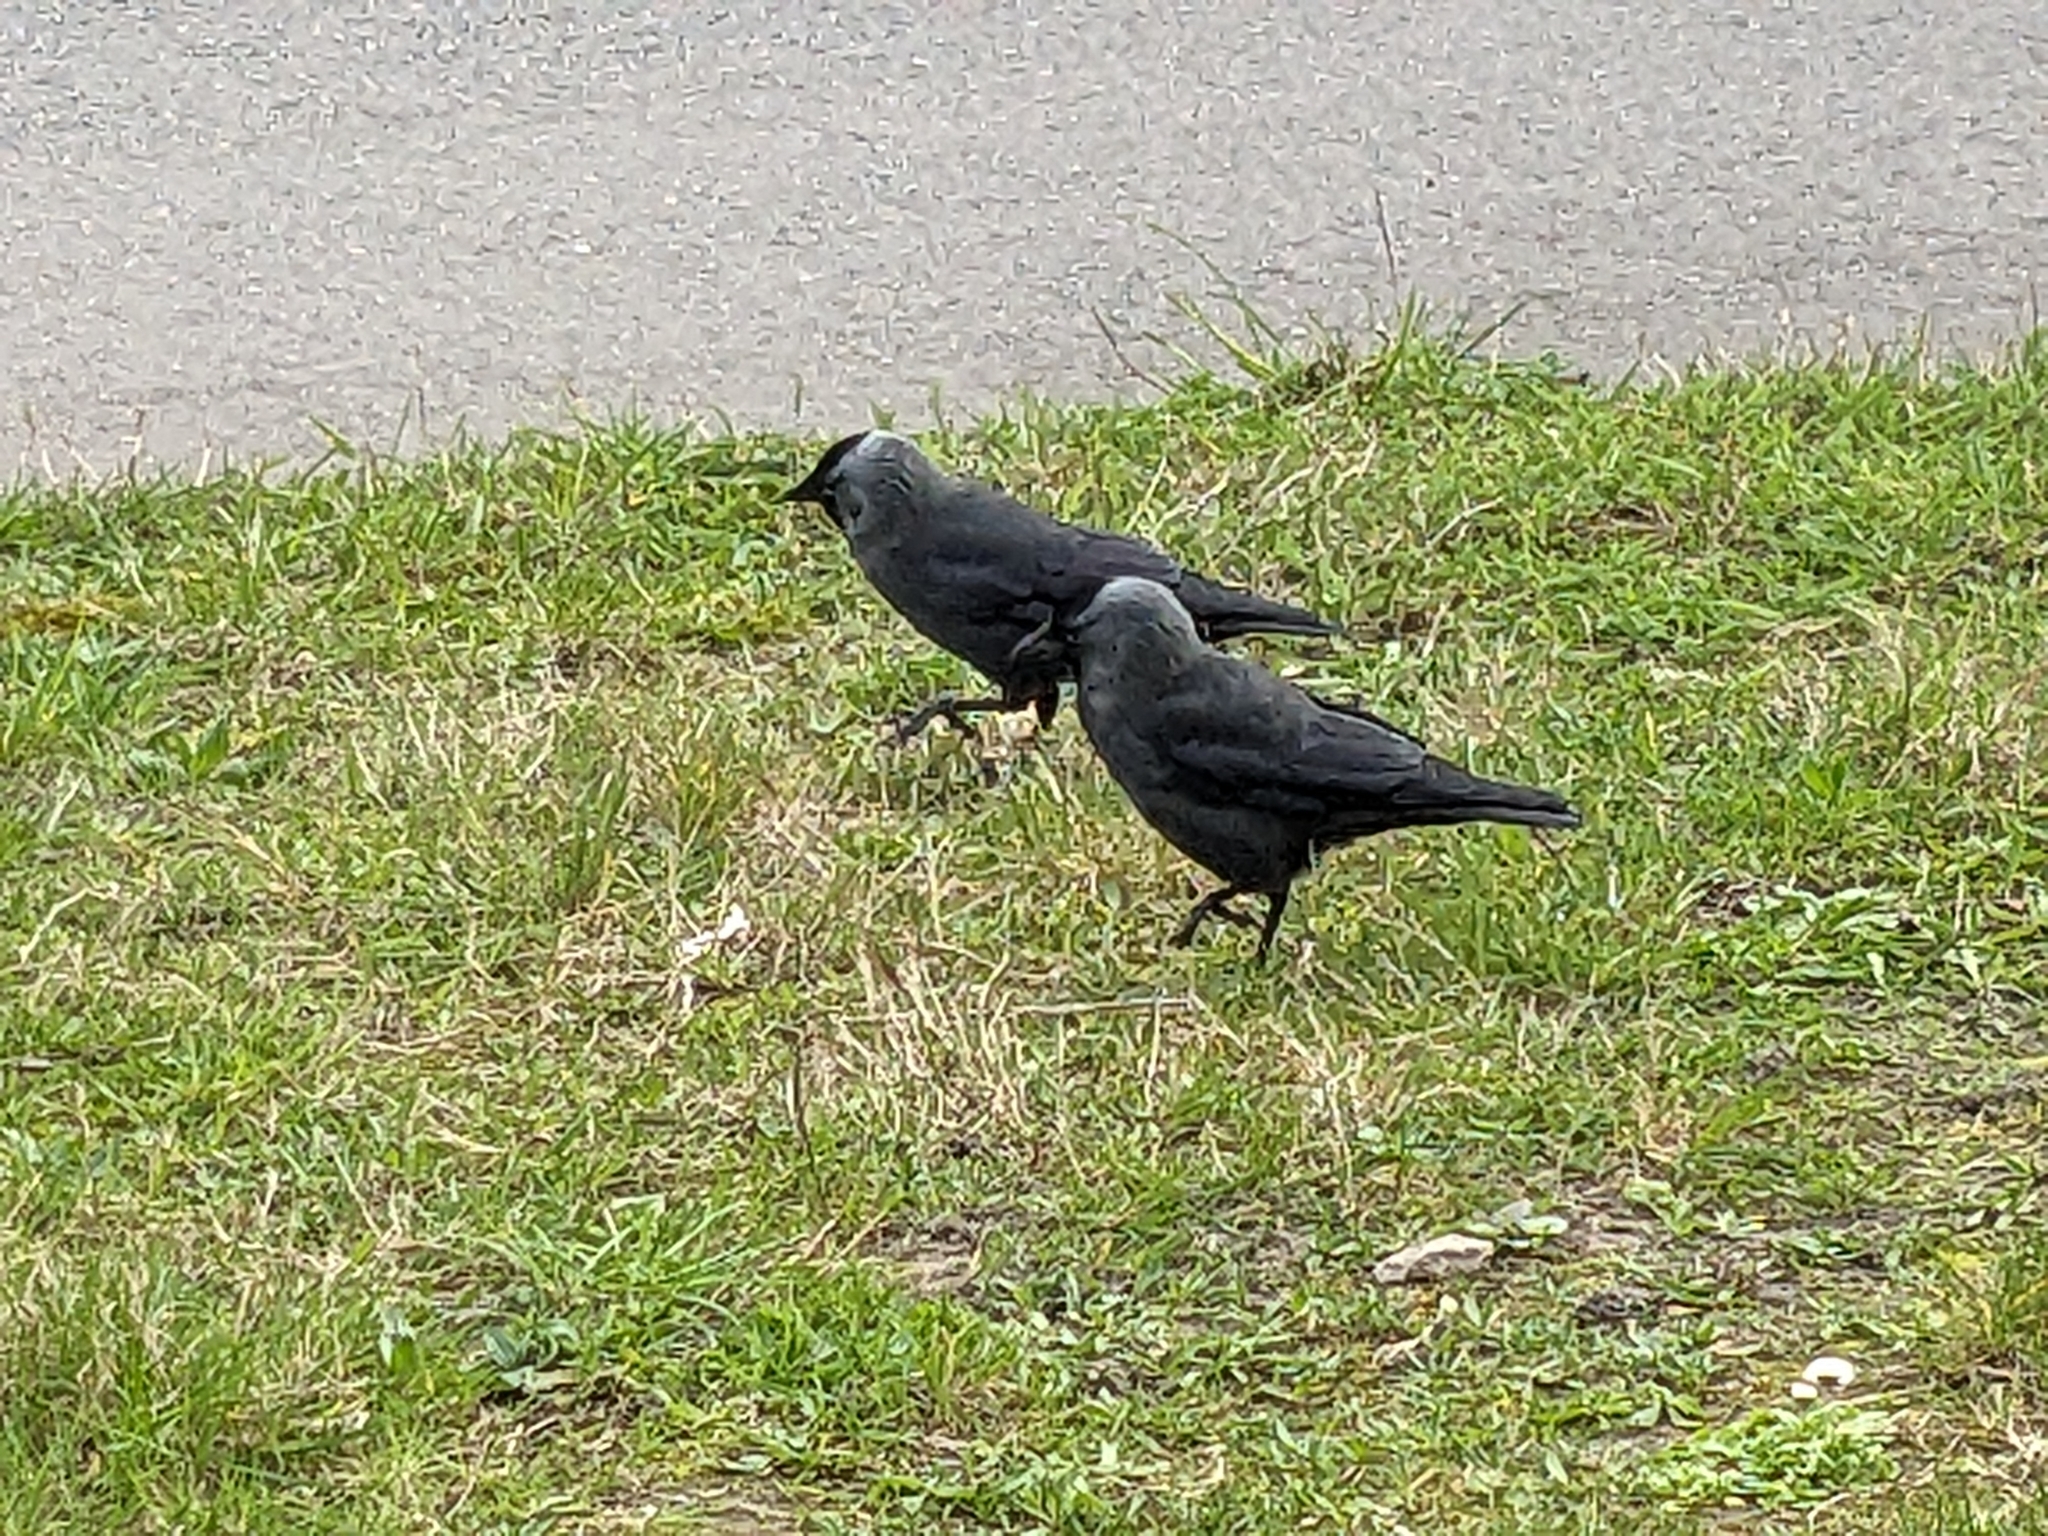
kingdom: Animalia
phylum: Chordata
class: Aves
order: Passeriformes
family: Corvidae
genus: Coloeus
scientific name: Coloeus monedula
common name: Western jackdaw
